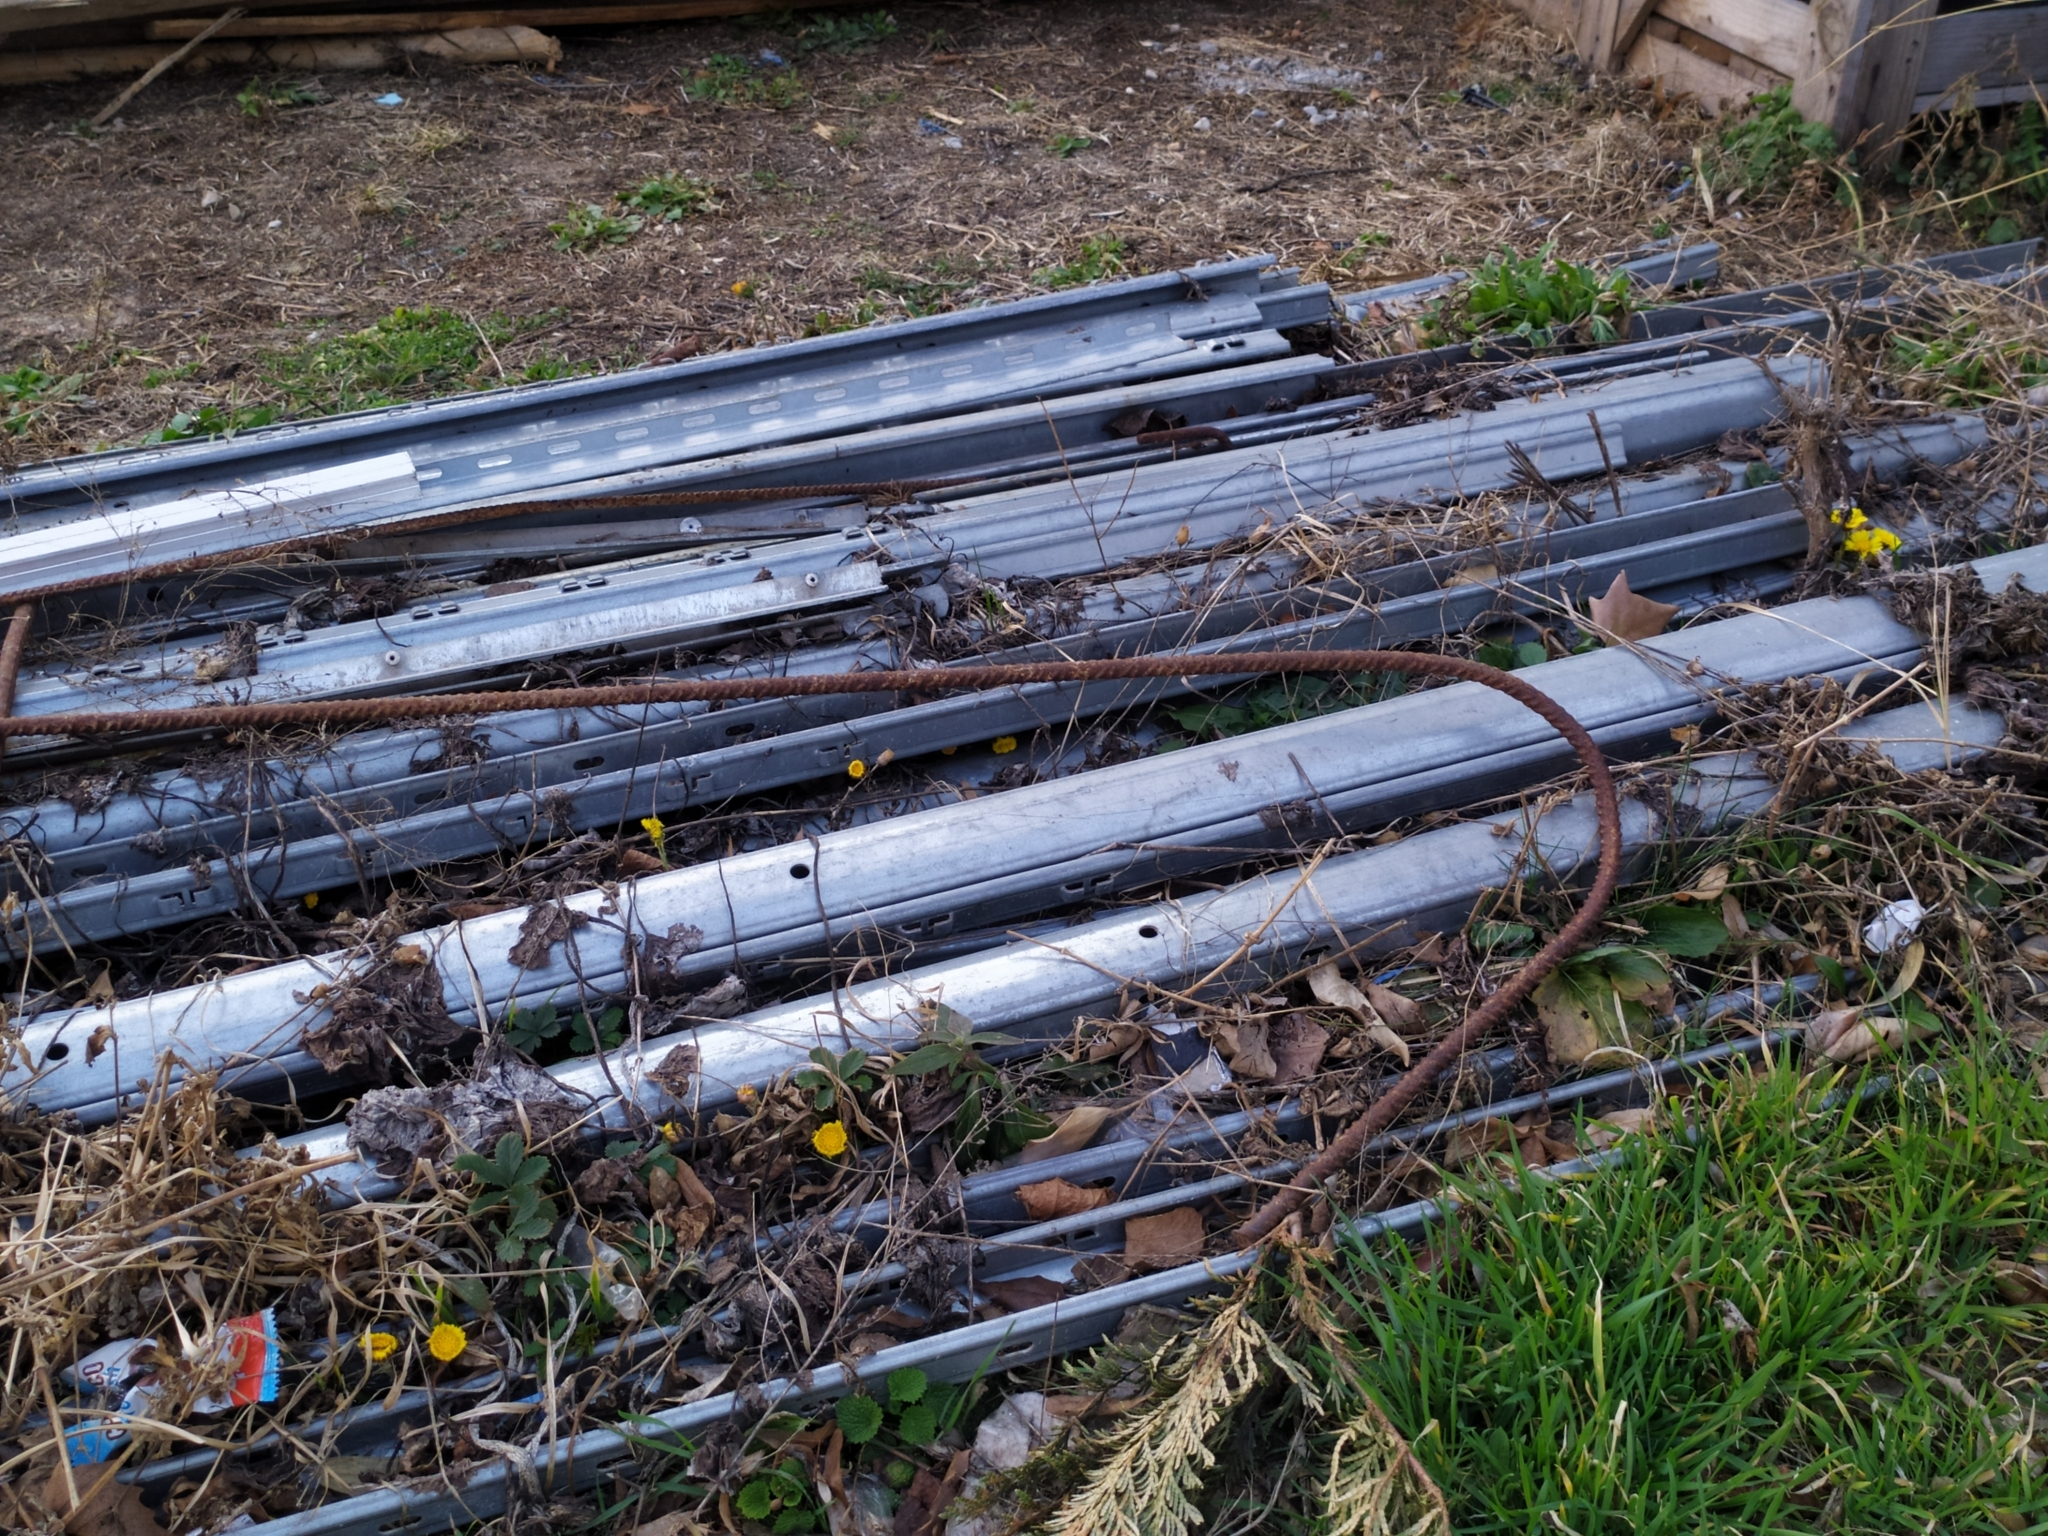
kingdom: Plantae
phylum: Tracheophyta
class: Magnoliopsida
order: Asterales
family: Asteraceae
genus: Tussilago
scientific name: Tussilago farfara
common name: Coltsfoot
